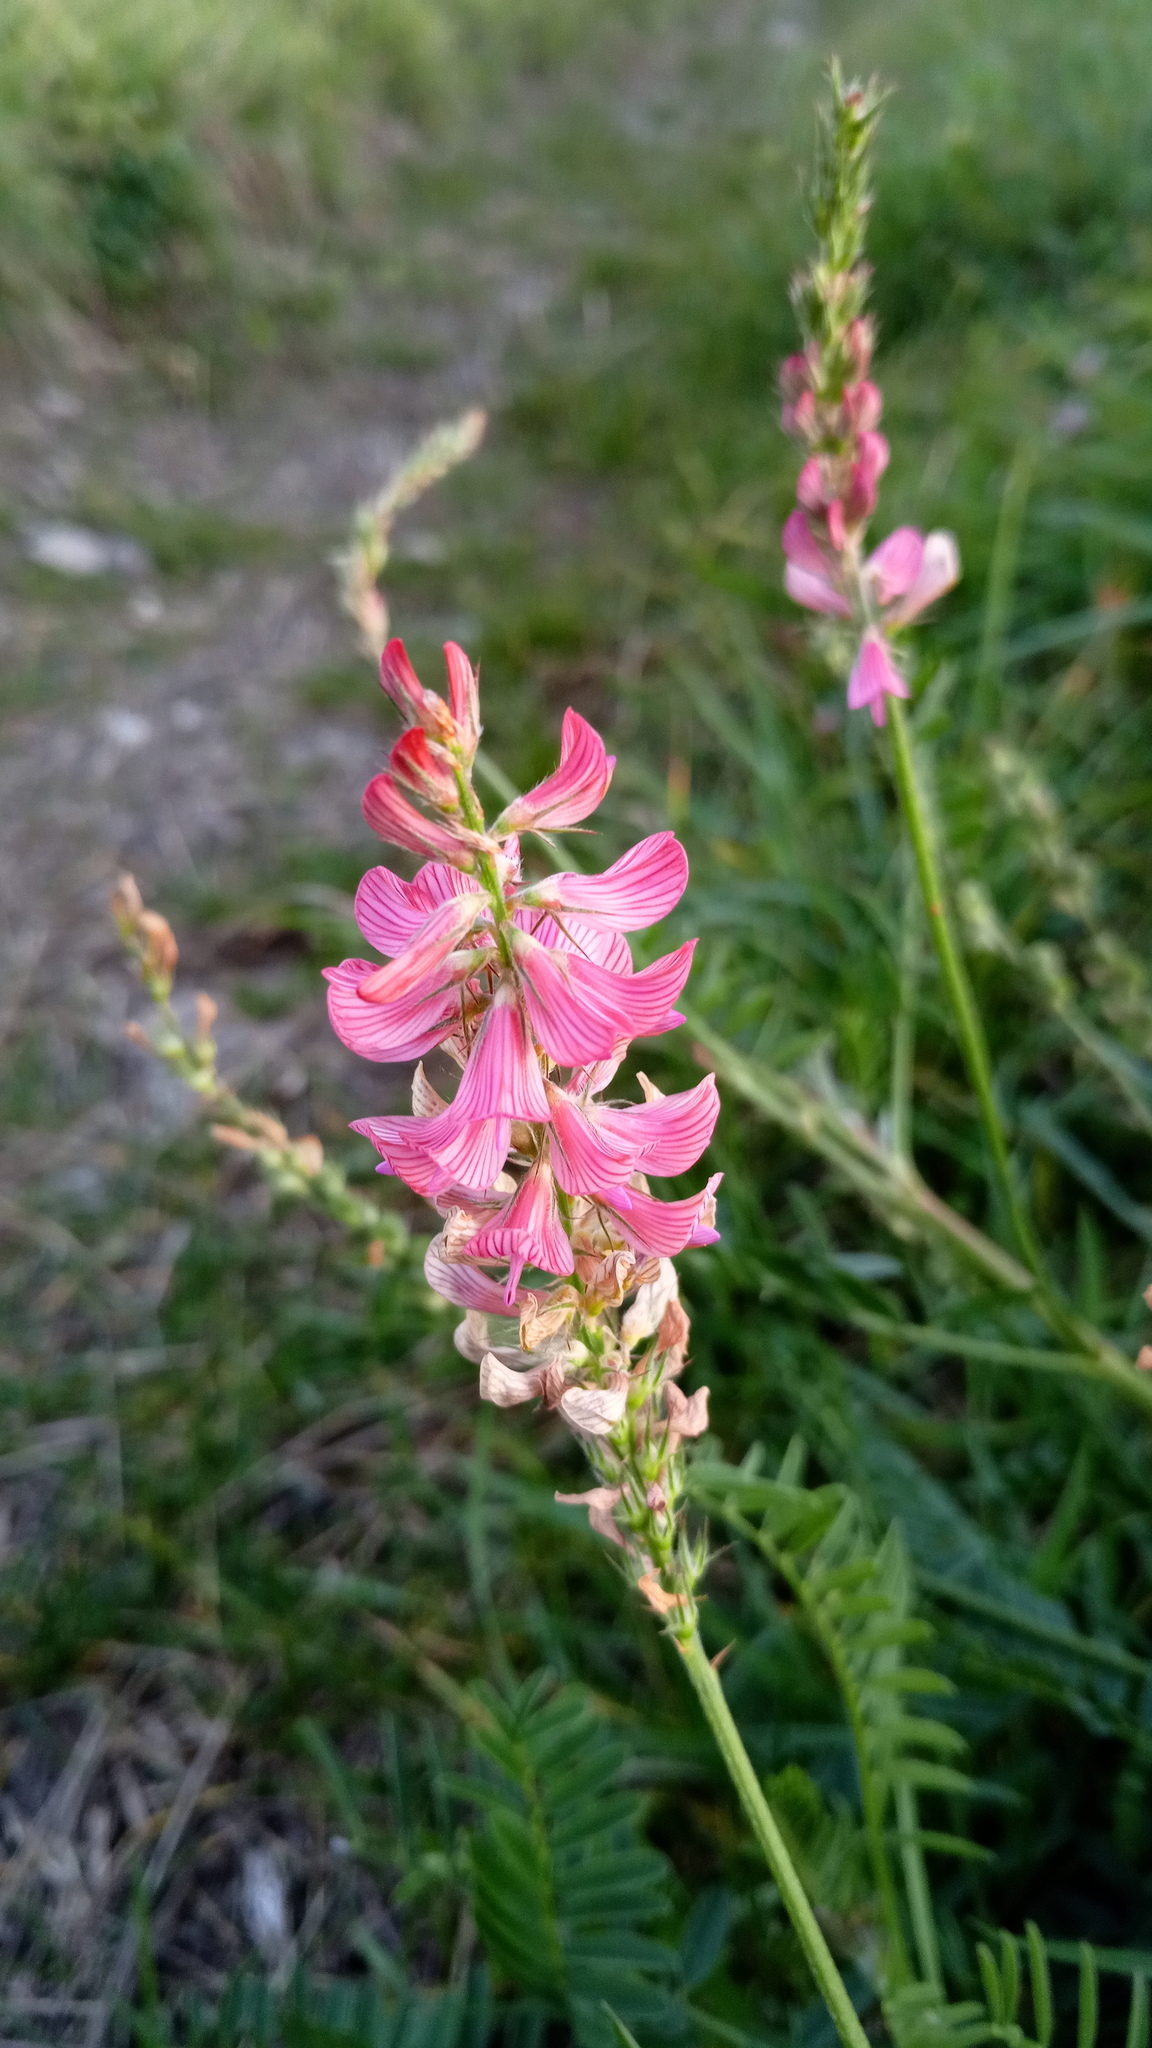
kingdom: Plantae
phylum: Tracheophyta
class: Magnoliopsida
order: Fabales
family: Fabaceae
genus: Onobrychis
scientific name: Onobrychis viciifolia
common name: Sainfoin
